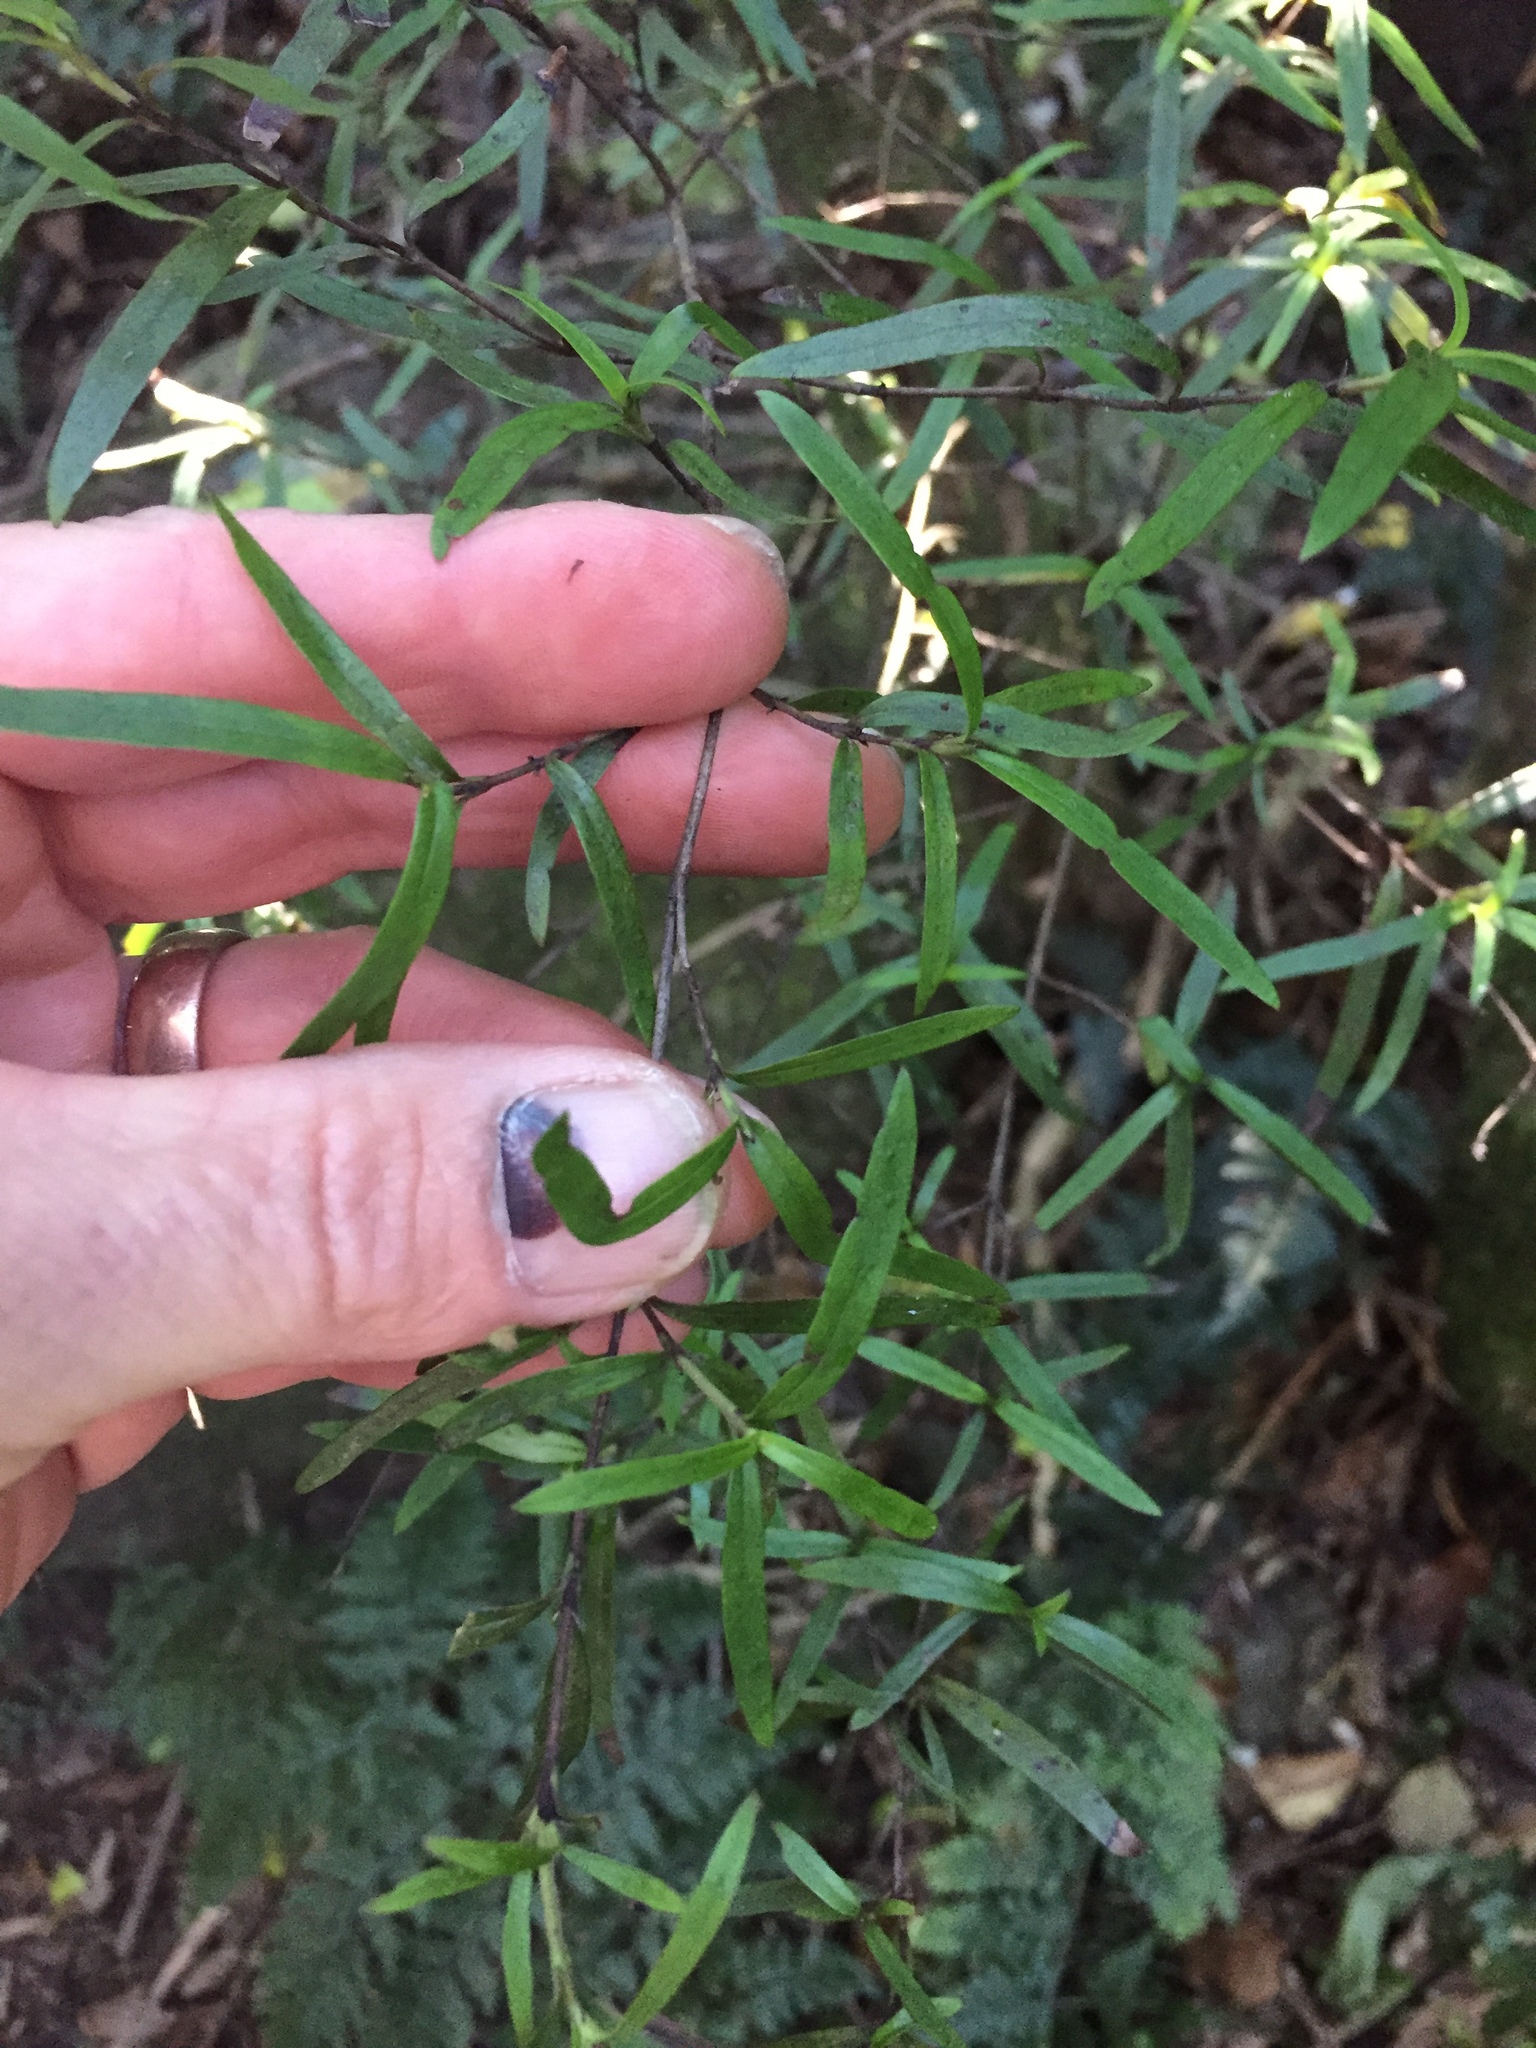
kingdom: Plantae
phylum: Tracheophyta
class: Magnoliopsida
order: Gentianales
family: Rubiaceae
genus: Coprosma
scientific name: Coprosma linariifolia
